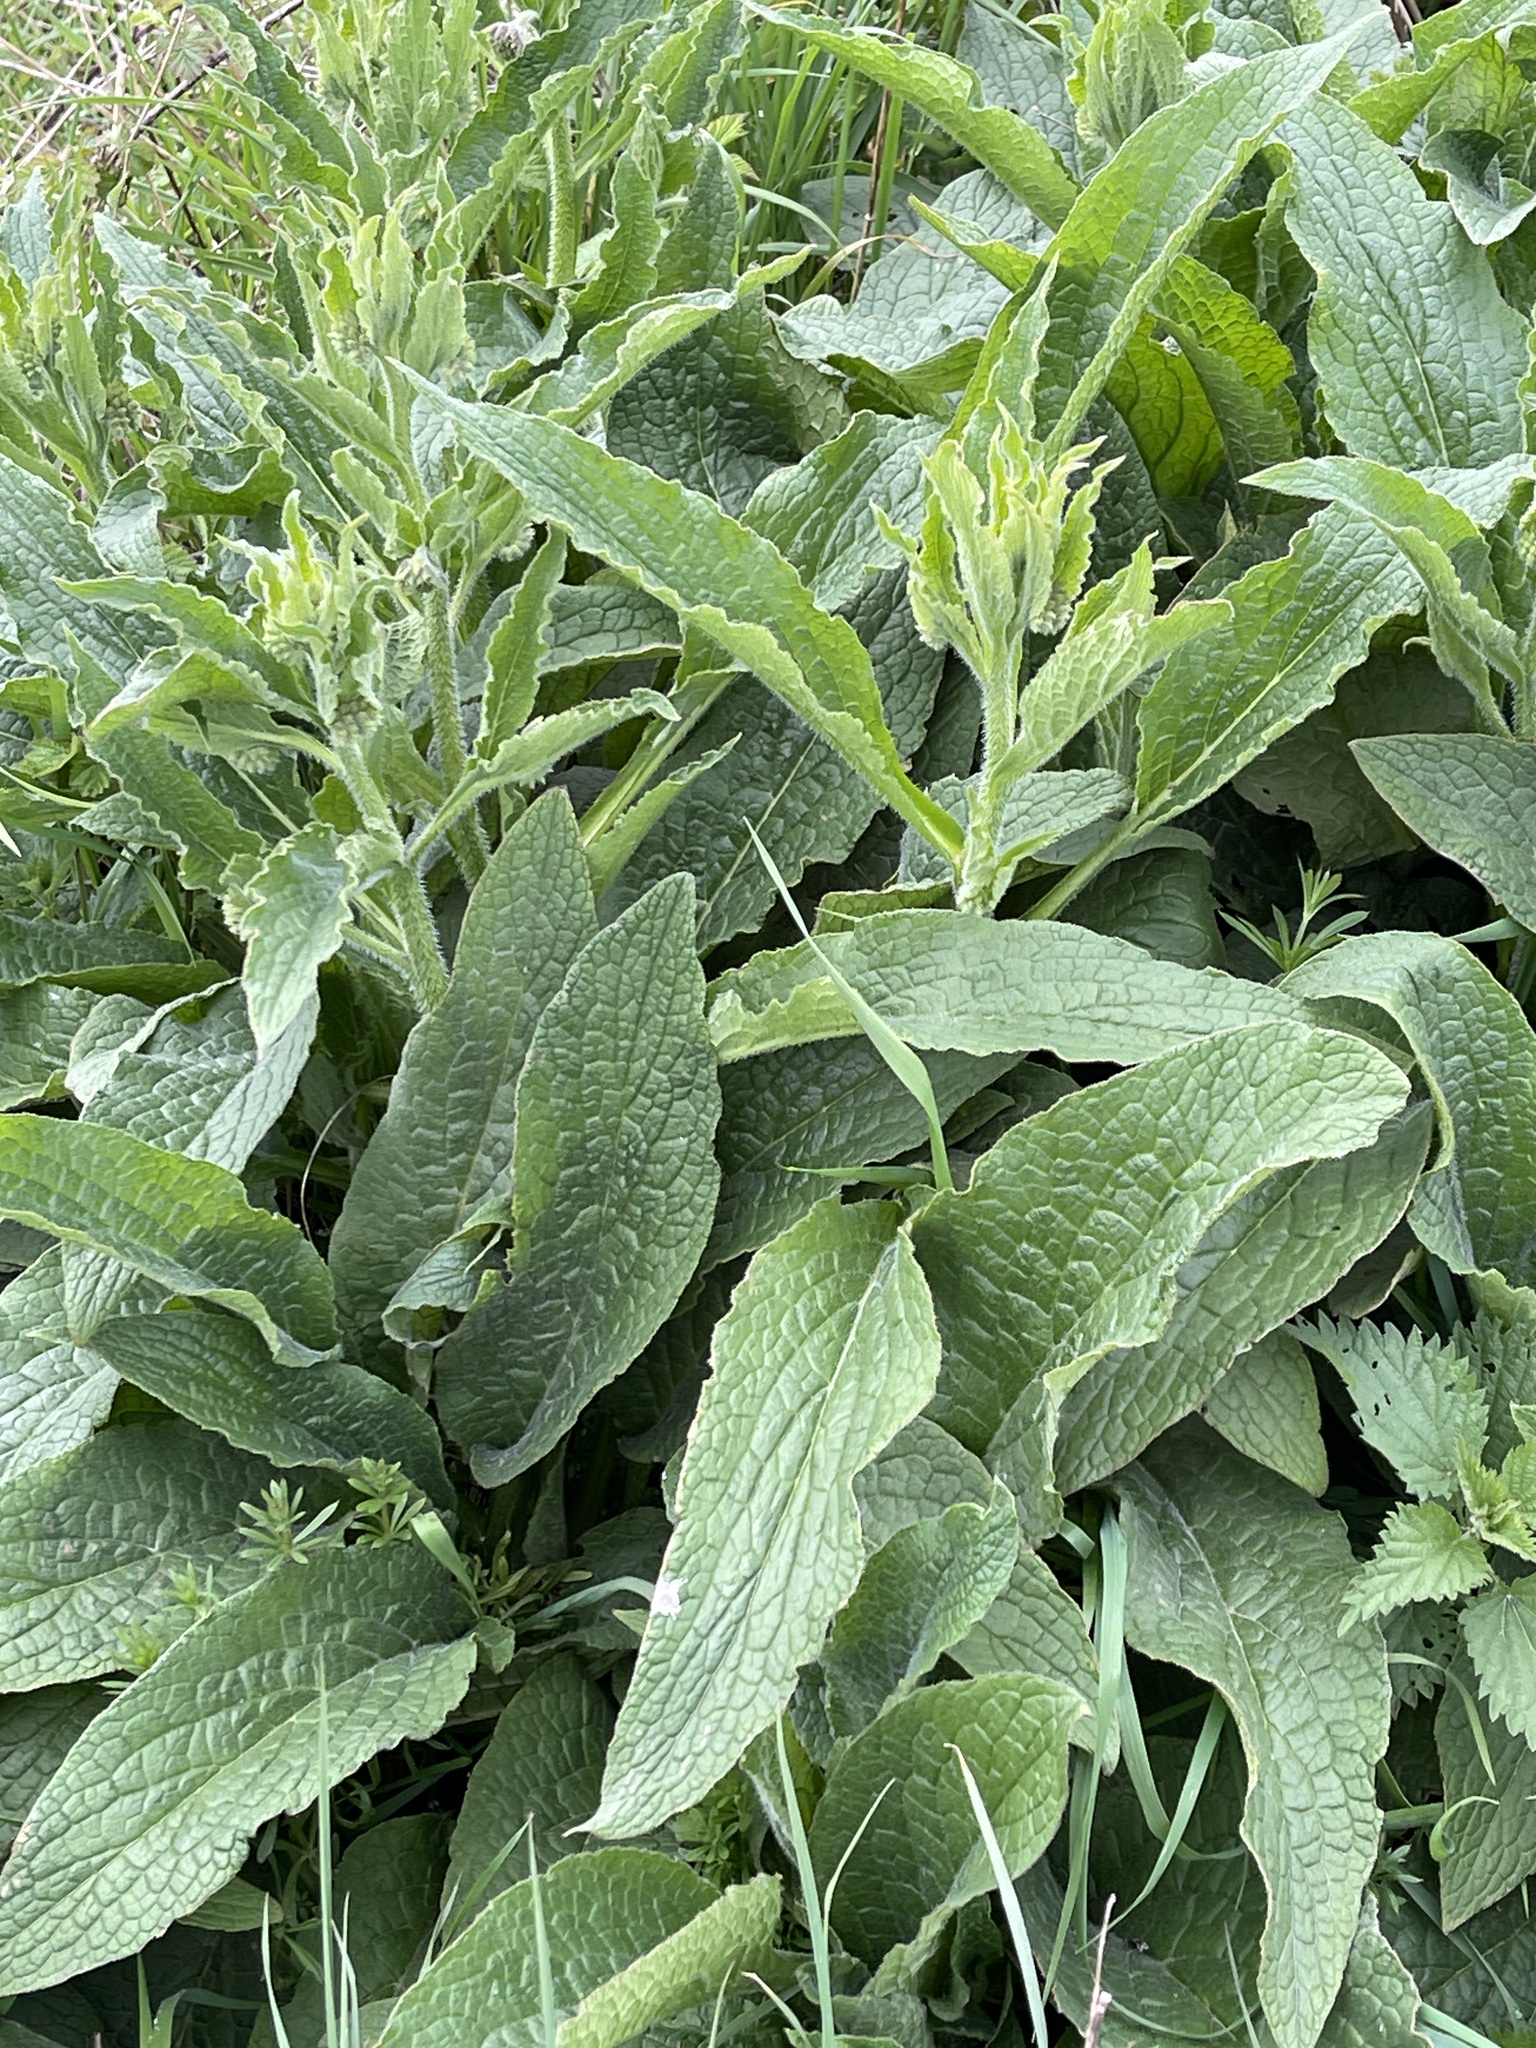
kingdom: Plantae
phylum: Tracheophyta
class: Magnoliopsida
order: Boraginales
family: Boraginaceae
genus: Symphytum
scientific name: Symphytum uplandicum
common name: Russian comfrey
